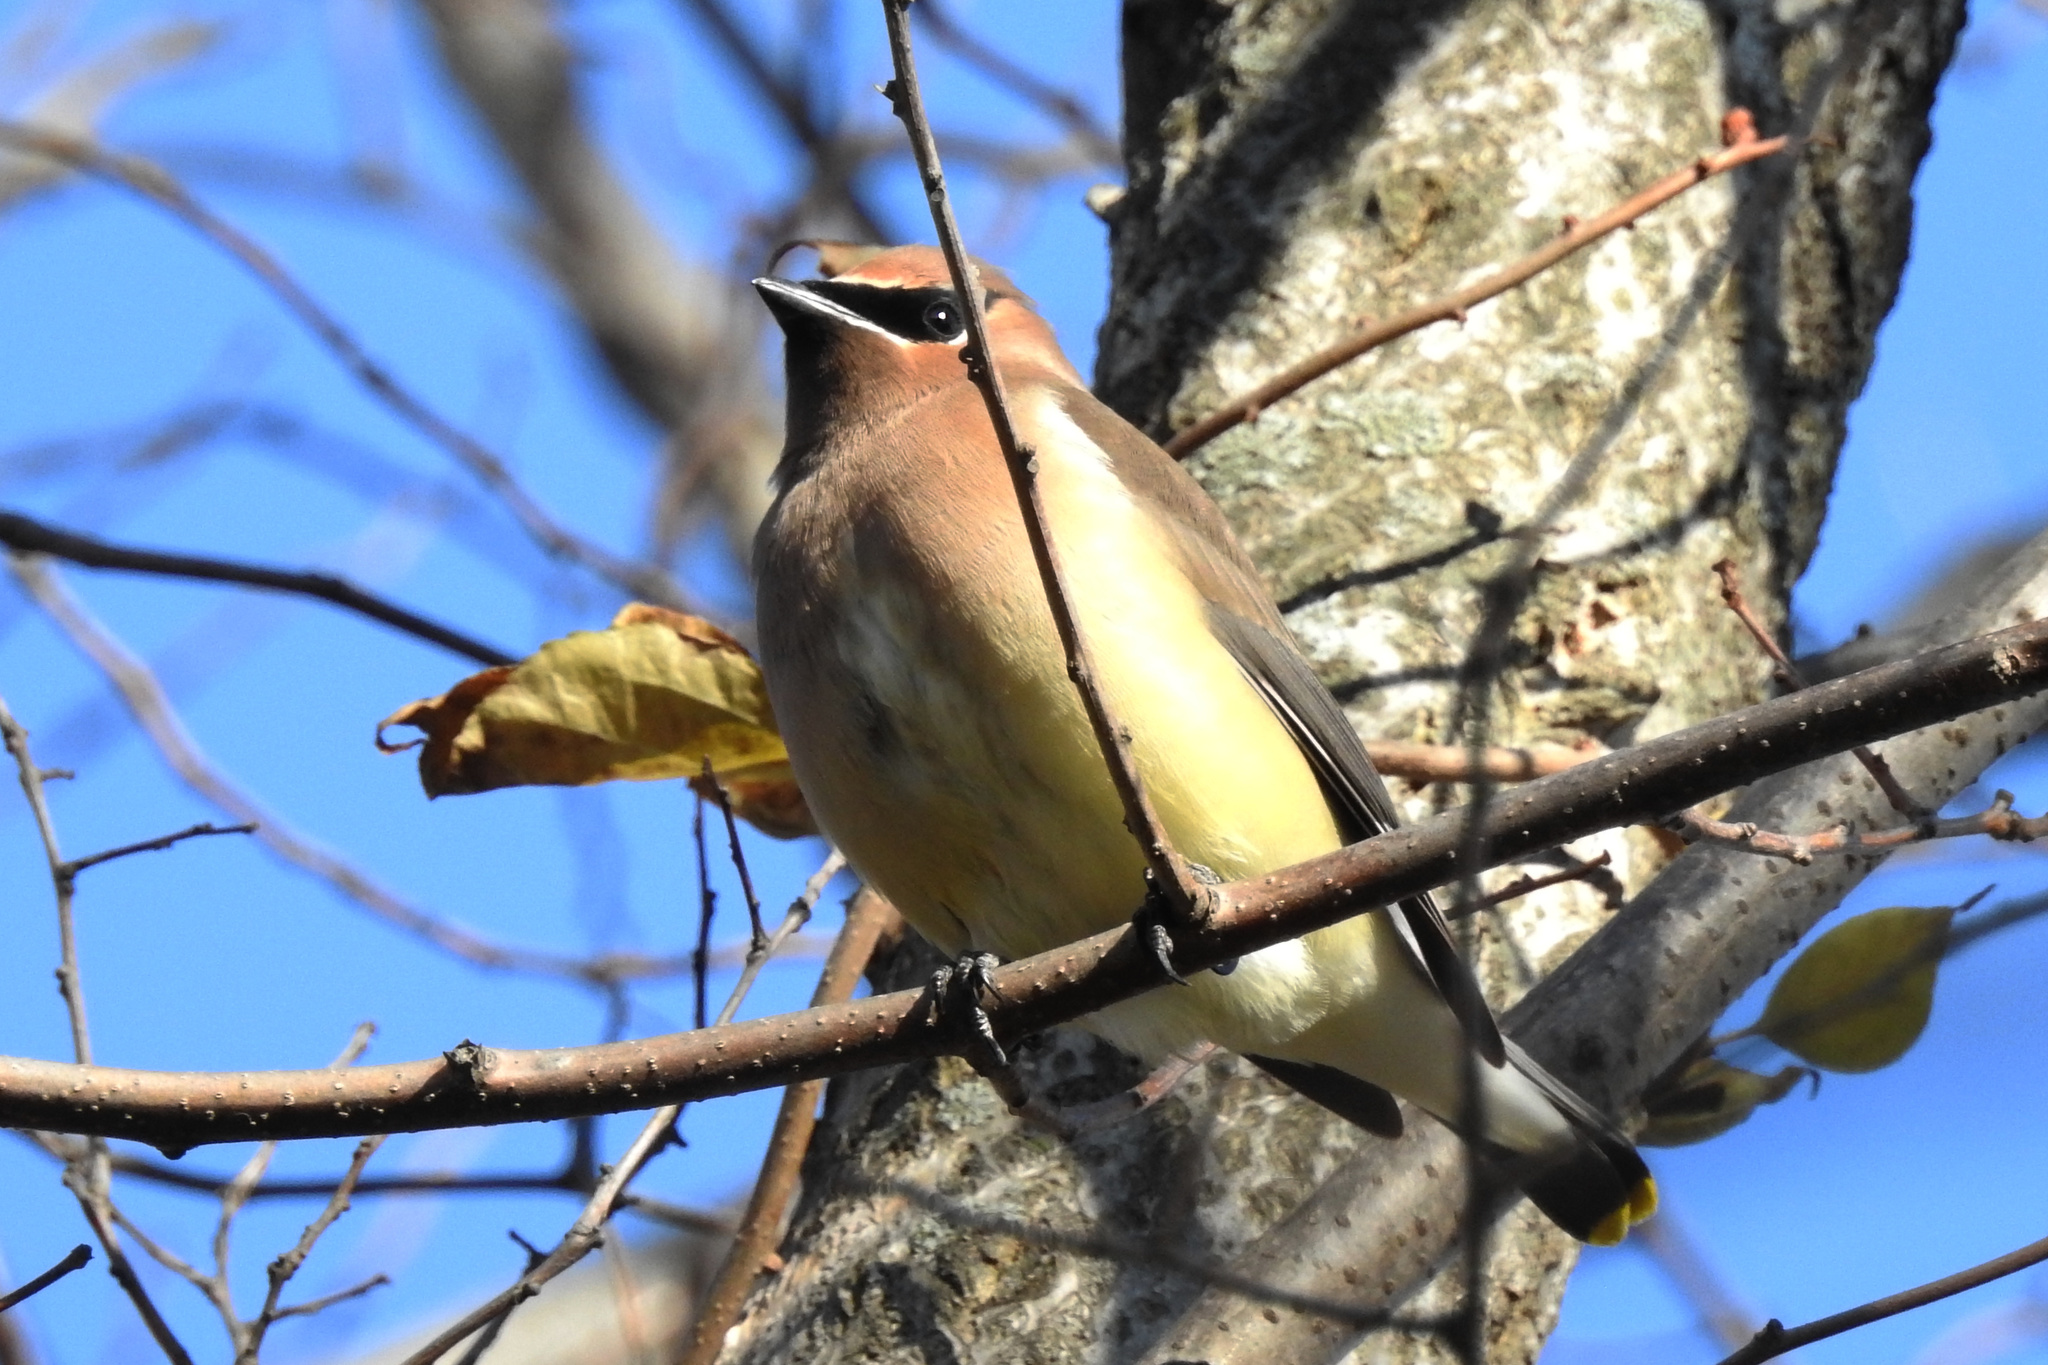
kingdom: Animalia
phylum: Chordata
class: Aves
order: Passeriformes
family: Bombycillidae
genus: Bombycilla
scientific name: Bombycilla cedrorum
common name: Cedar waxwing
